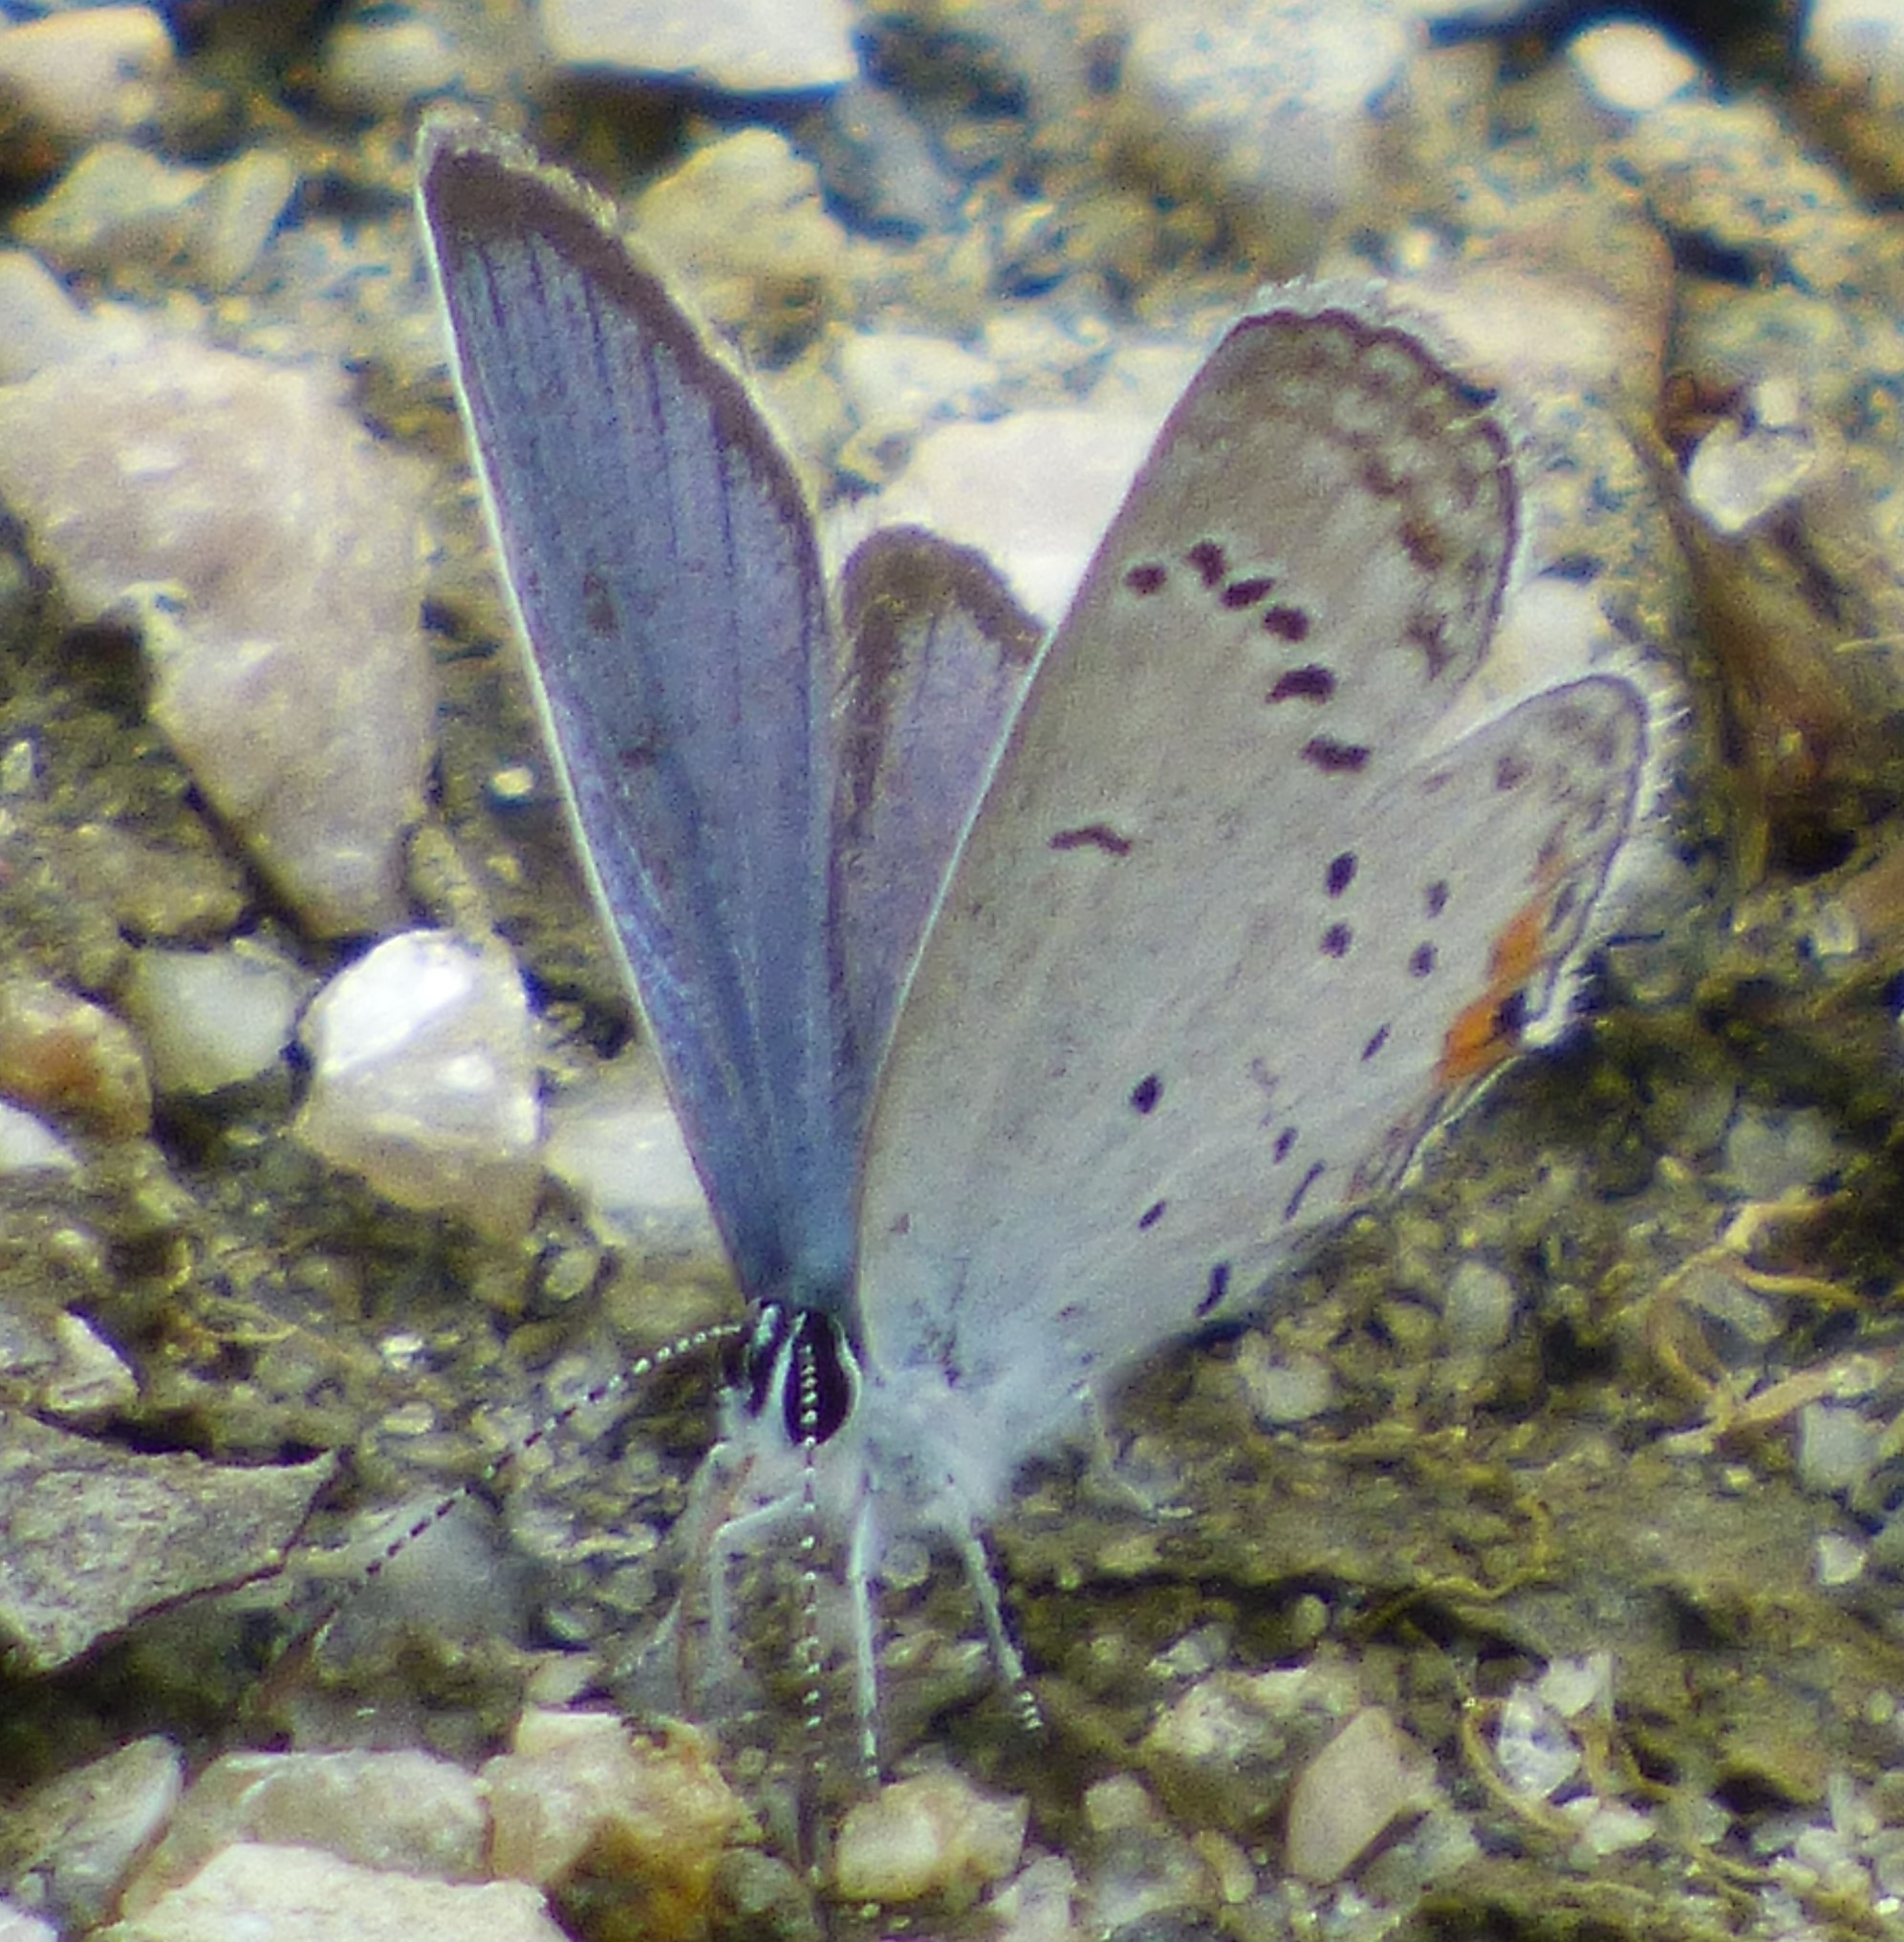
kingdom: Animalia
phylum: Arthropoda
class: Insecta
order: Lepidoptera
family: Lycaenidae
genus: Elkalyce
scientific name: Elkalyce comyntas
